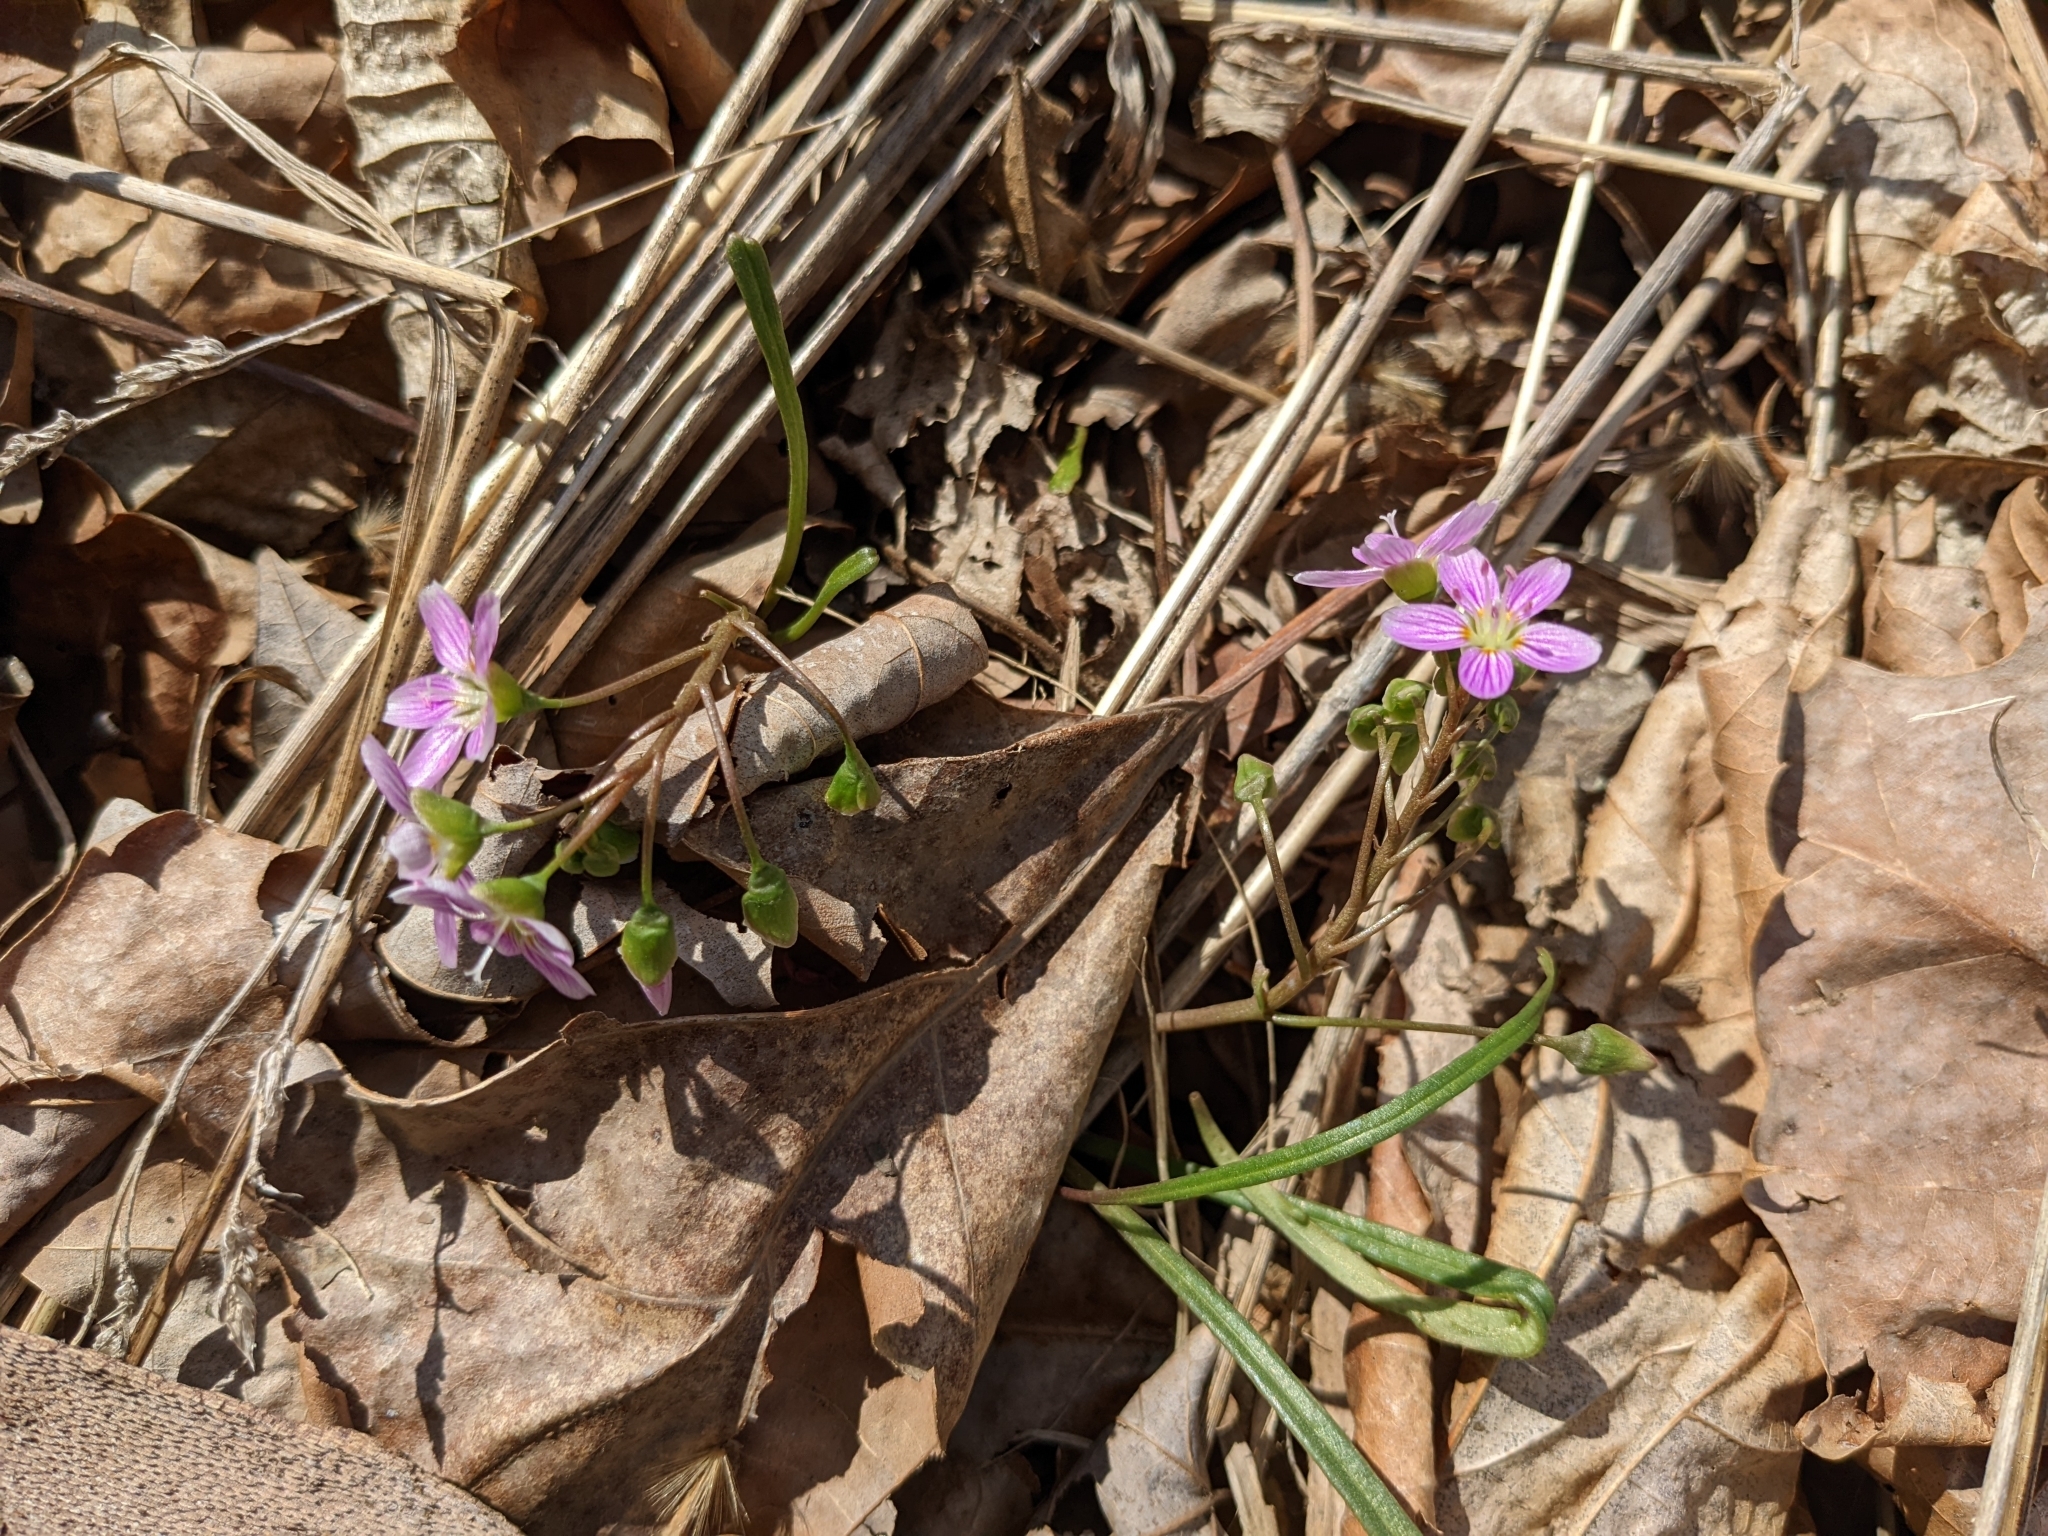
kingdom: Plantae
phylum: Tracheophyta
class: Magnoliopsida
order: Caryophyllales
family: Montiaceae
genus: Claytonia
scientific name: Claytonia virginica
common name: Virginia springbeauty
